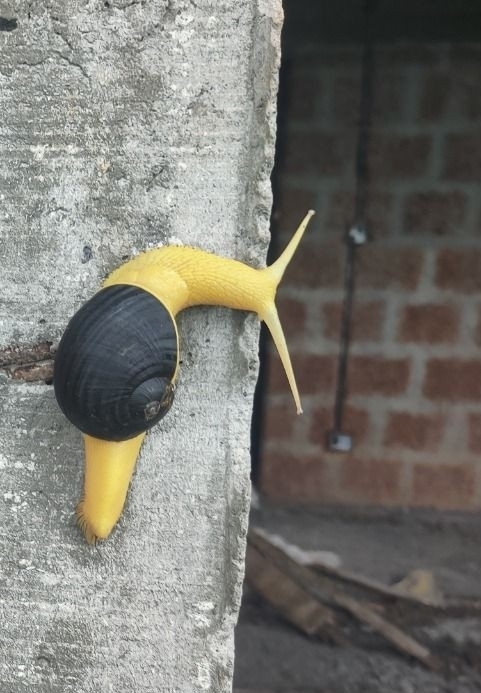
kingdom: Animalia
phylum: Mollusca
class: Gastropoda
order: Stylommatophora
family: Ariophantidae
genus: Indrella
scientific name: Indrella ampulla
